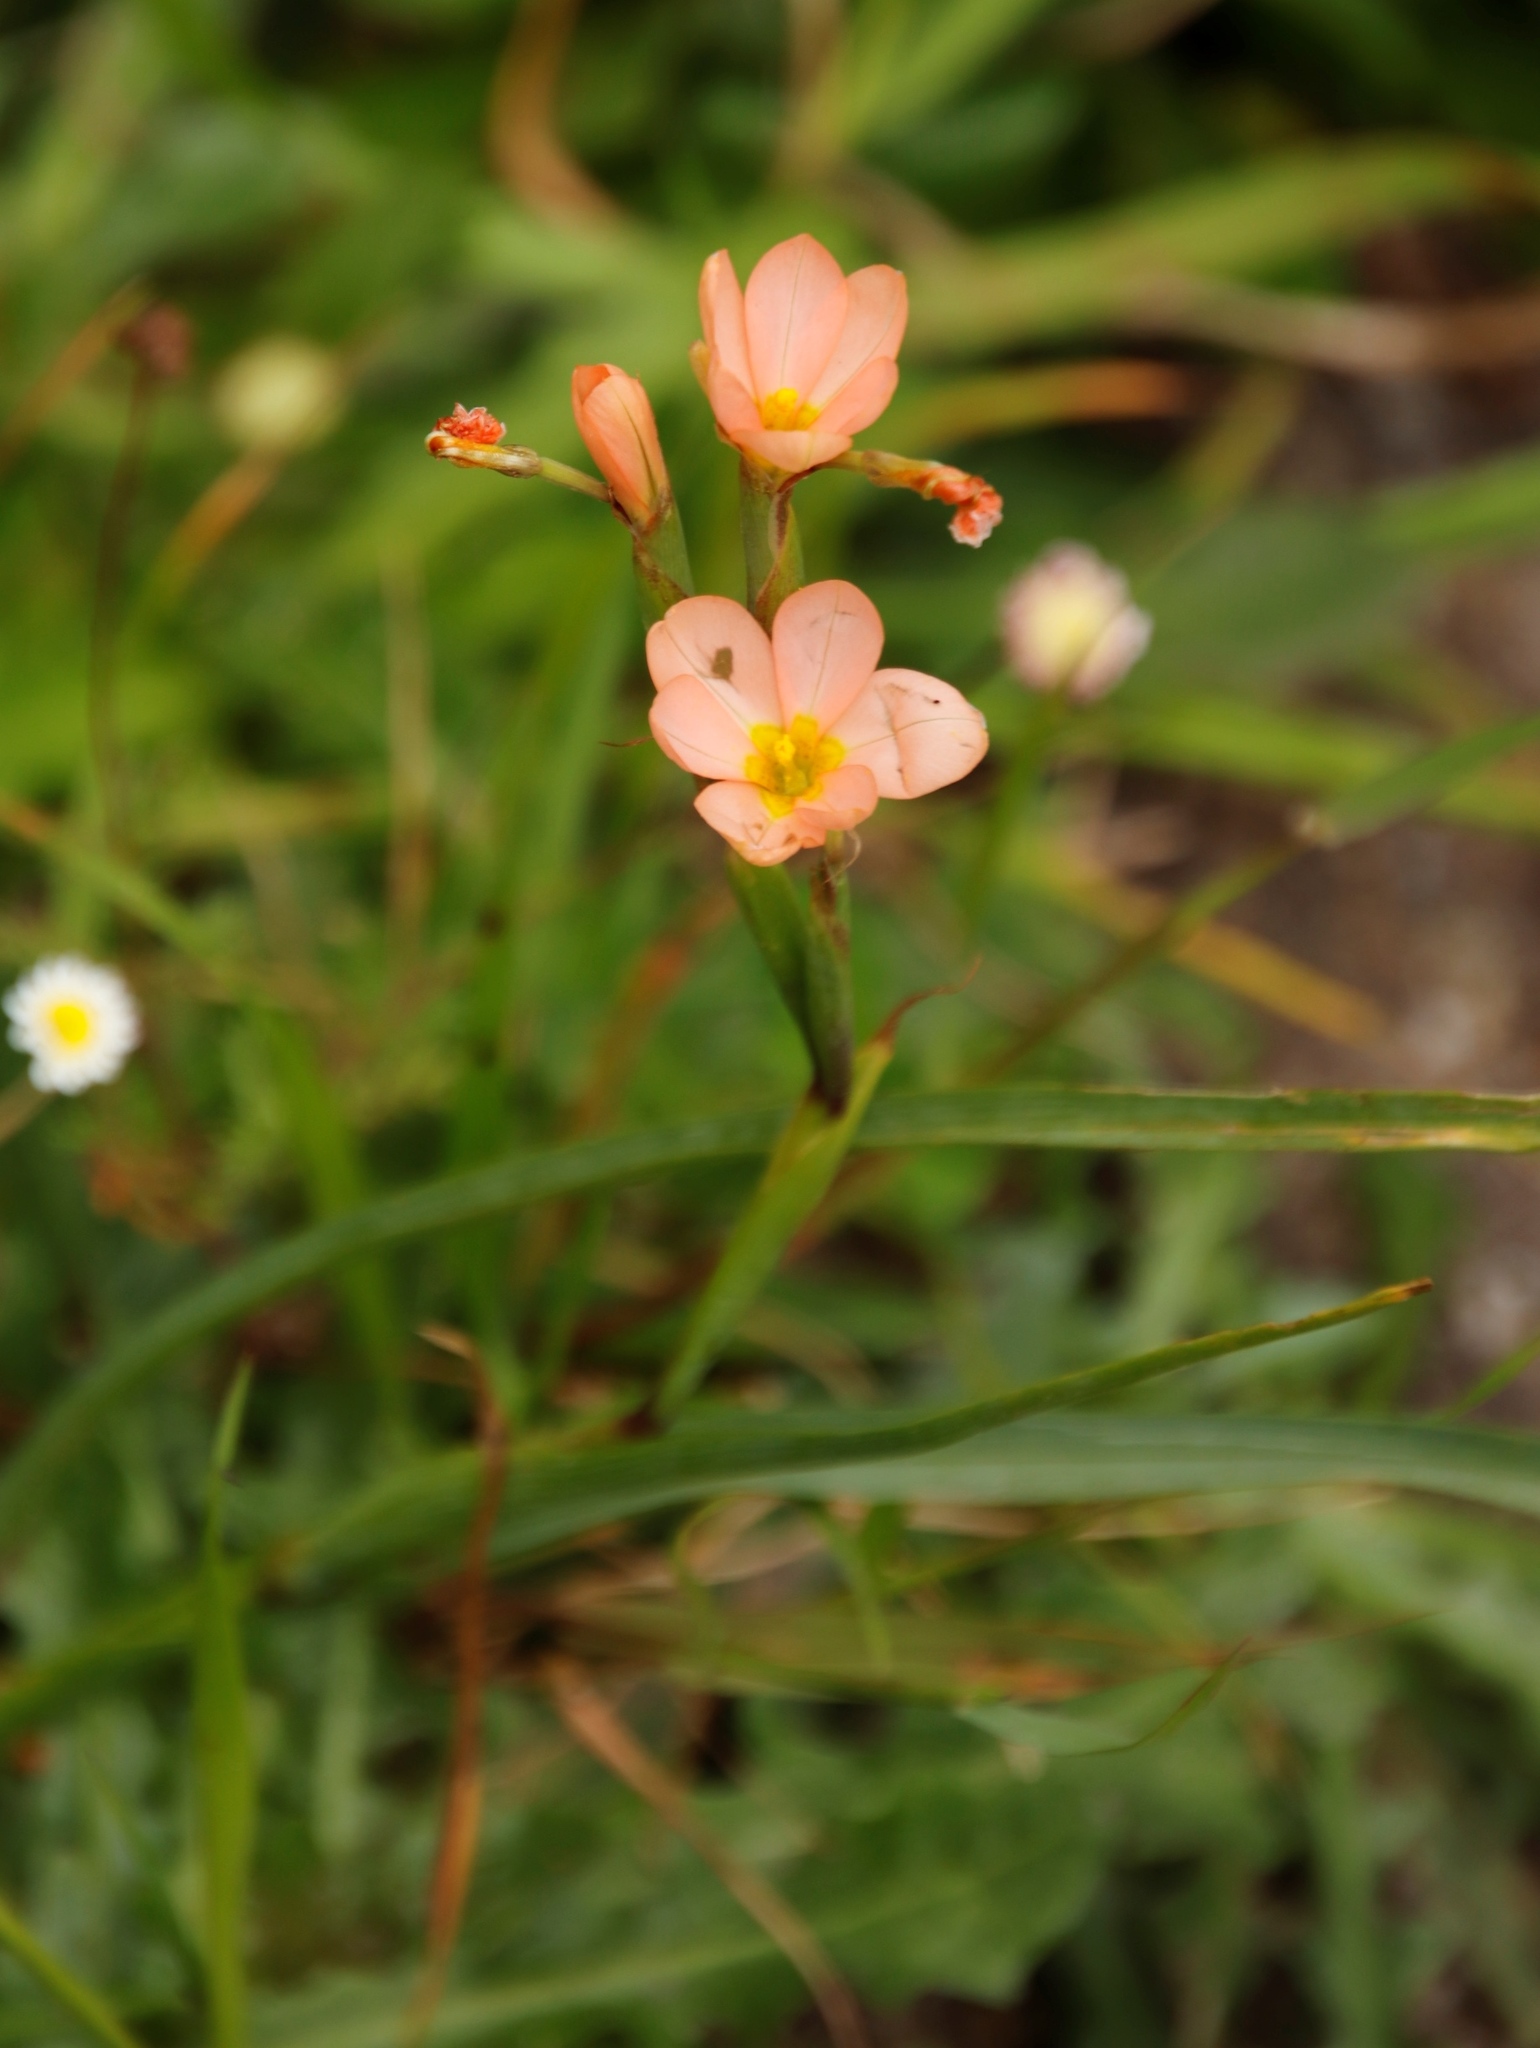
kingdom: Plantae
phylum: Tracheophyta
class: Liliopsida
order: Asparagales
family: Iridaceae
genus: Moraea
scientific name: Moraea miniata
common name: Two-leaf cape-tulip
